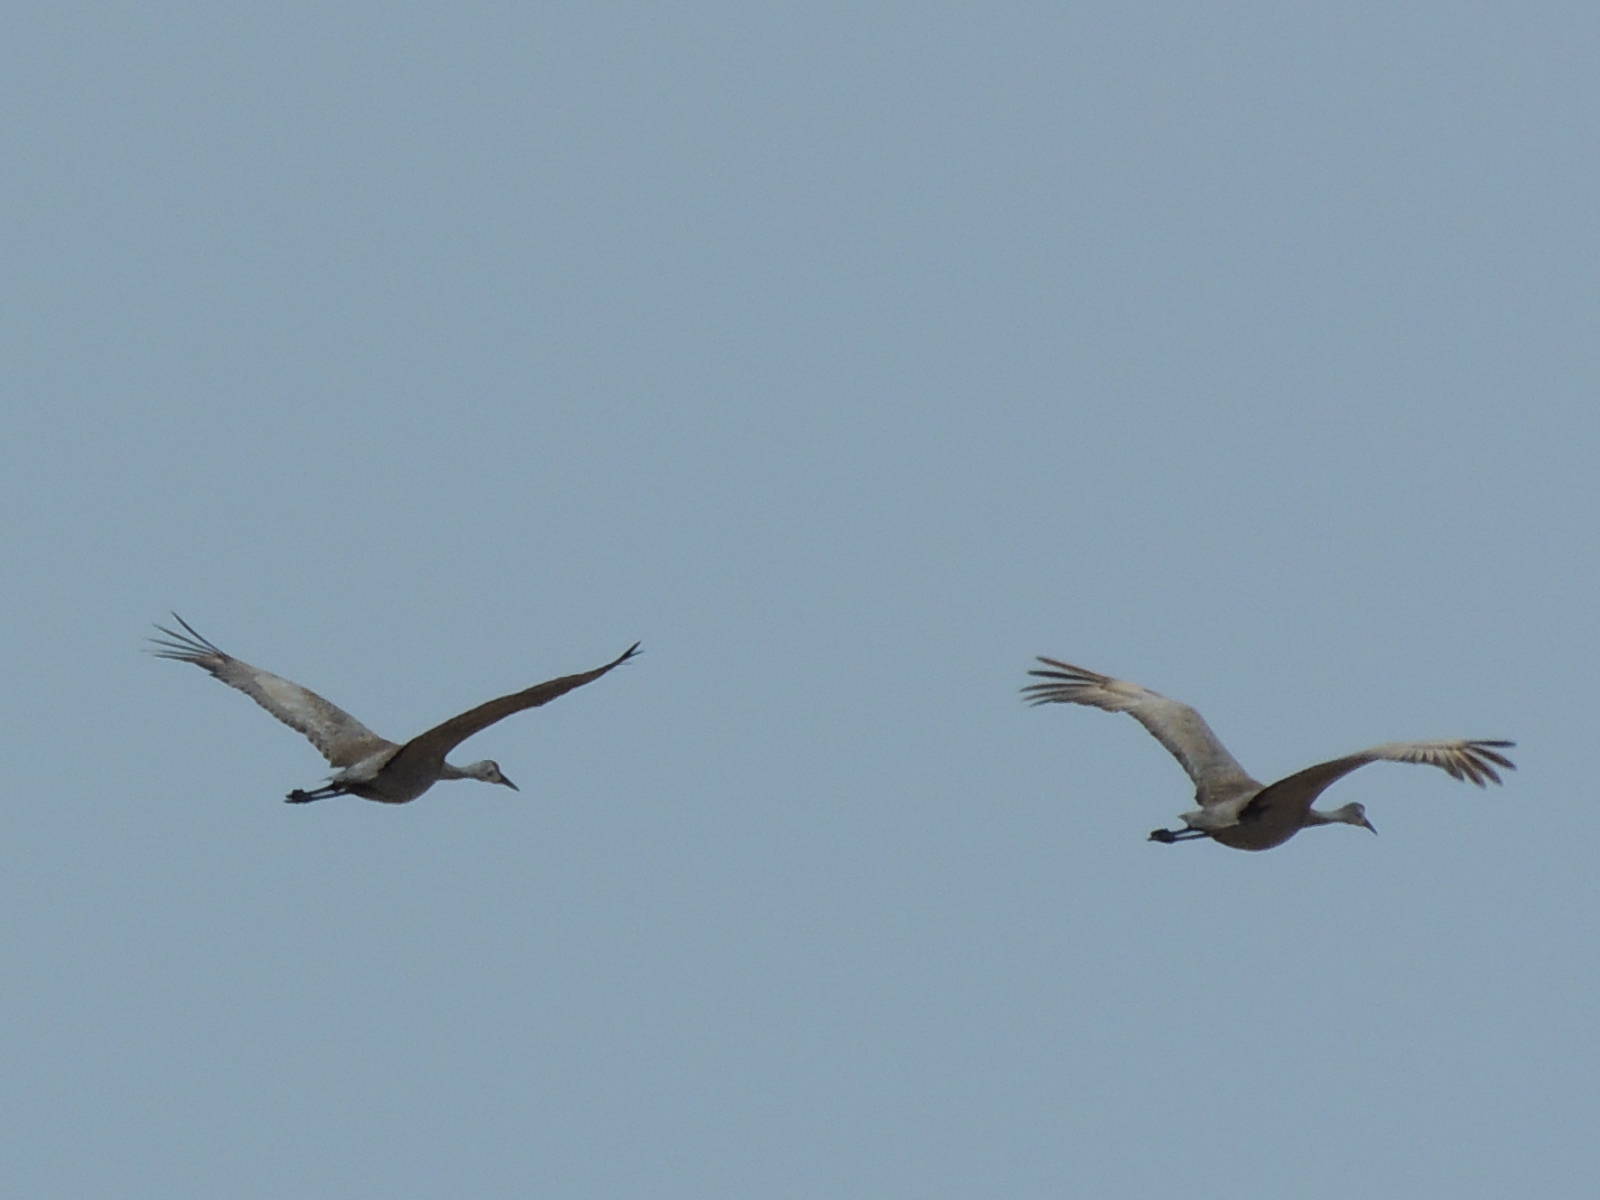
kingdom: Animalia
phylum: Chordata
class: Aves
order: Gruiformes
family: Gruidae
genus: Grus
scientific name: Grus canadensis
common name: Sandhill crane
